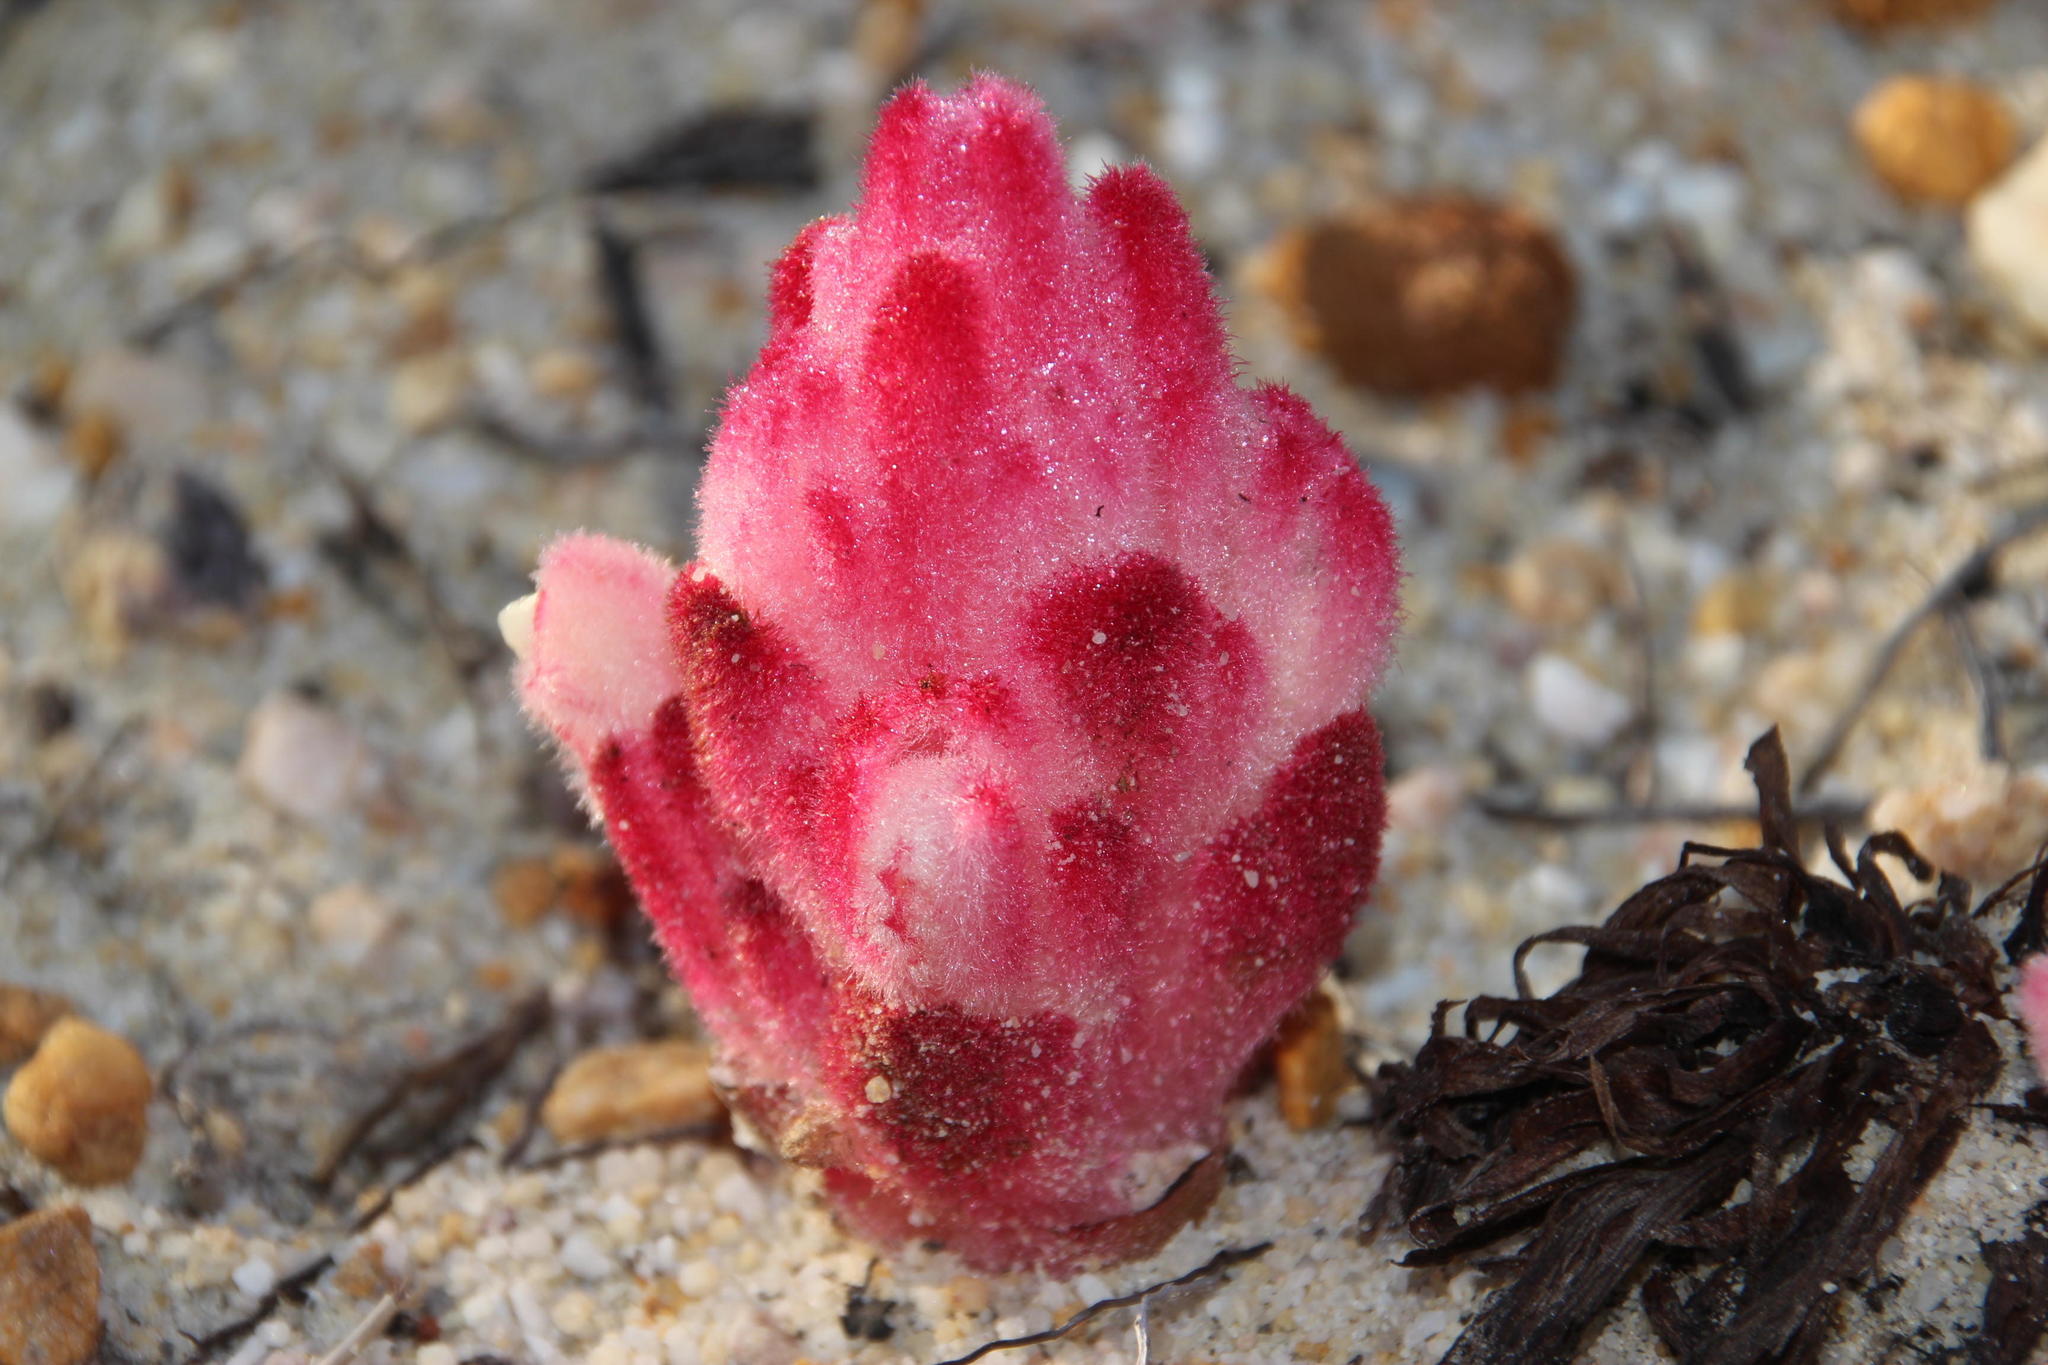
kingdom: Plantae
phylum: Tracheophyta
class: Magnoliopsida
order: Lamiales
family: Orobanchaceae
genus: Hyobanche
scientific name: Hyobanche sanguinea
